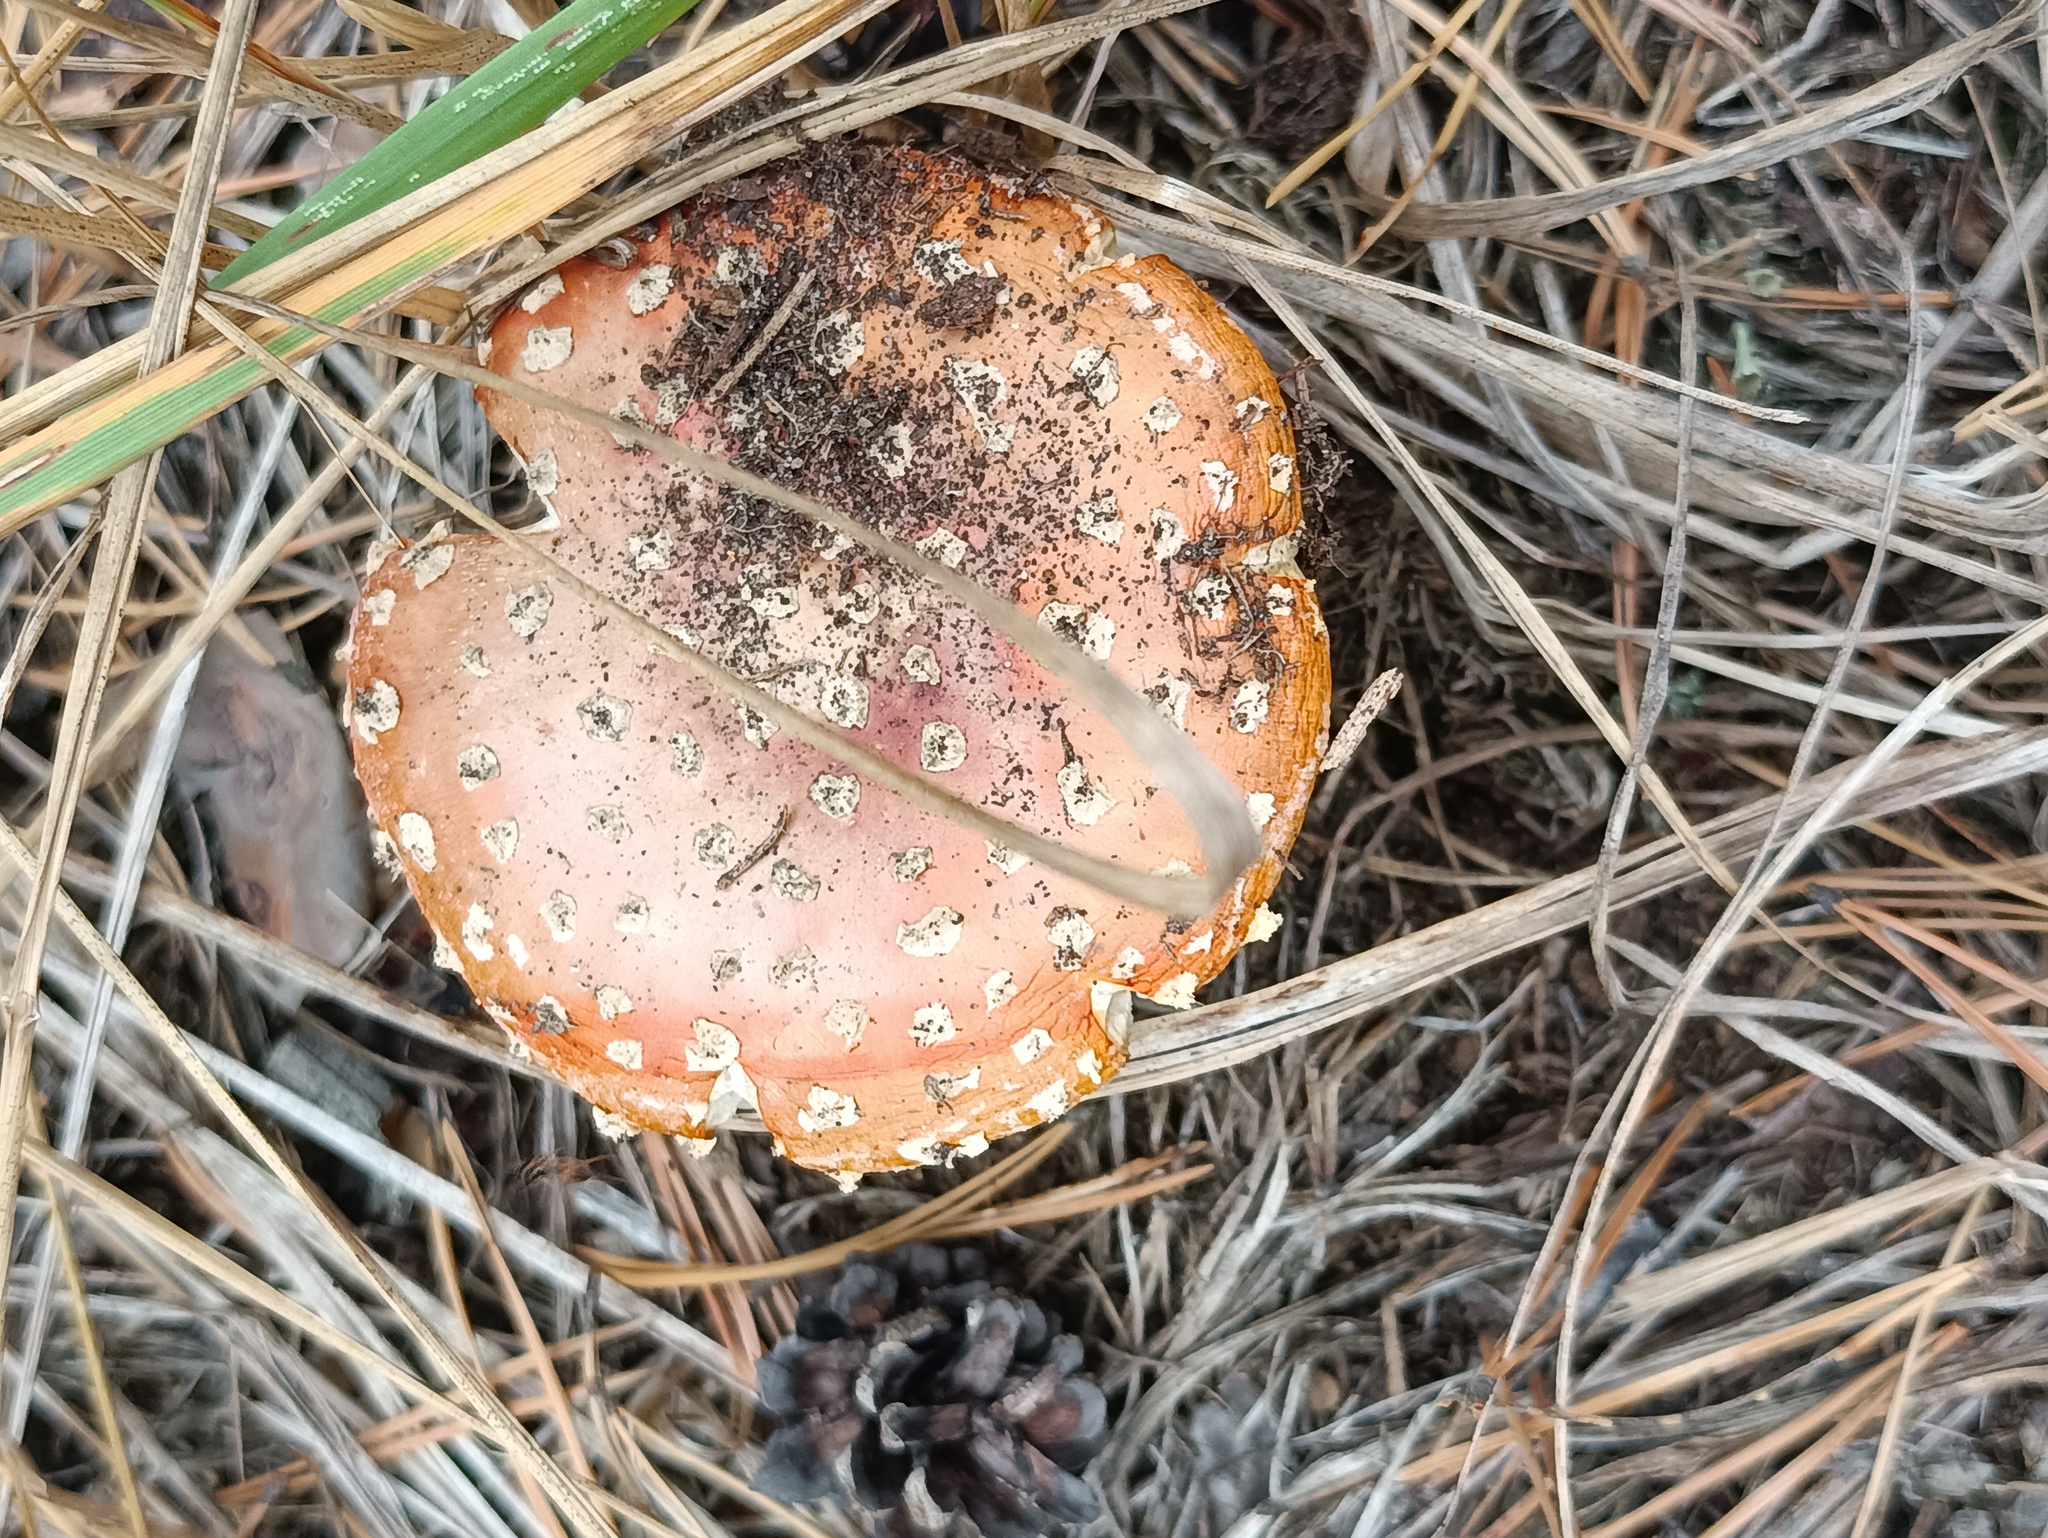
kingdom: Fungi
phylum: Basidiomycota
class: Agaricomycetes
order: Agaricales
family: Amanitaceae
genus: Amanita
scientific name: Amanita muscaria
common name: Fly agaric
